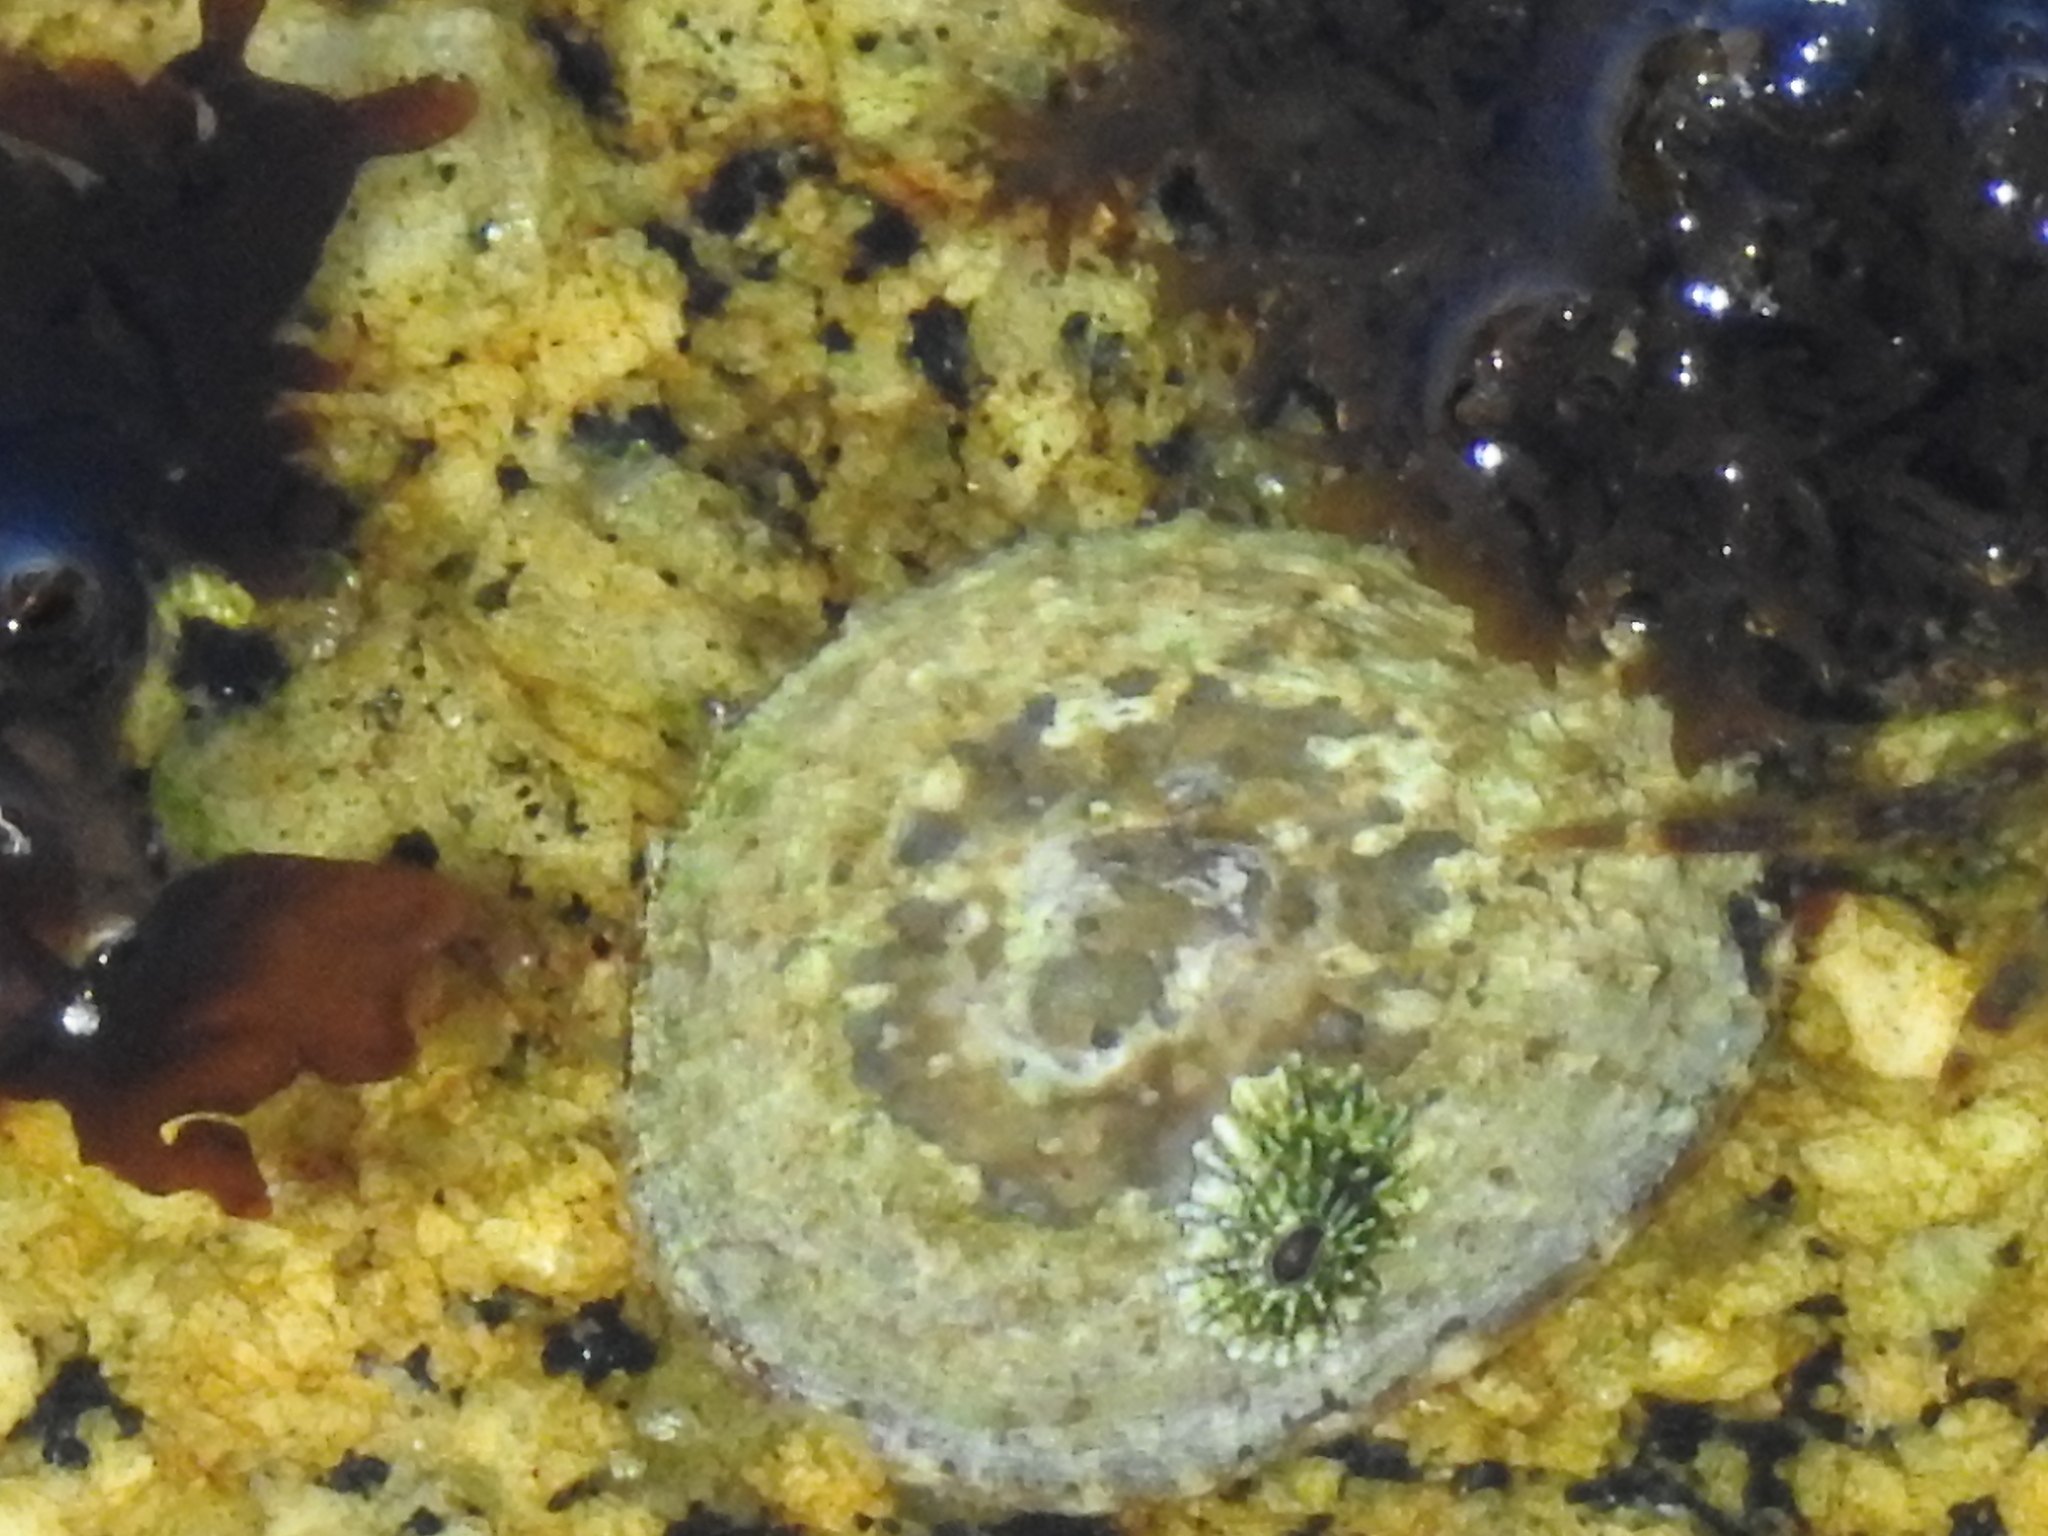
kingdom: Animalia
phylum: Mollusca
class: Gastropoda
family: Lottiidae
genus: Lottia
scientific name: Lottia scabra
